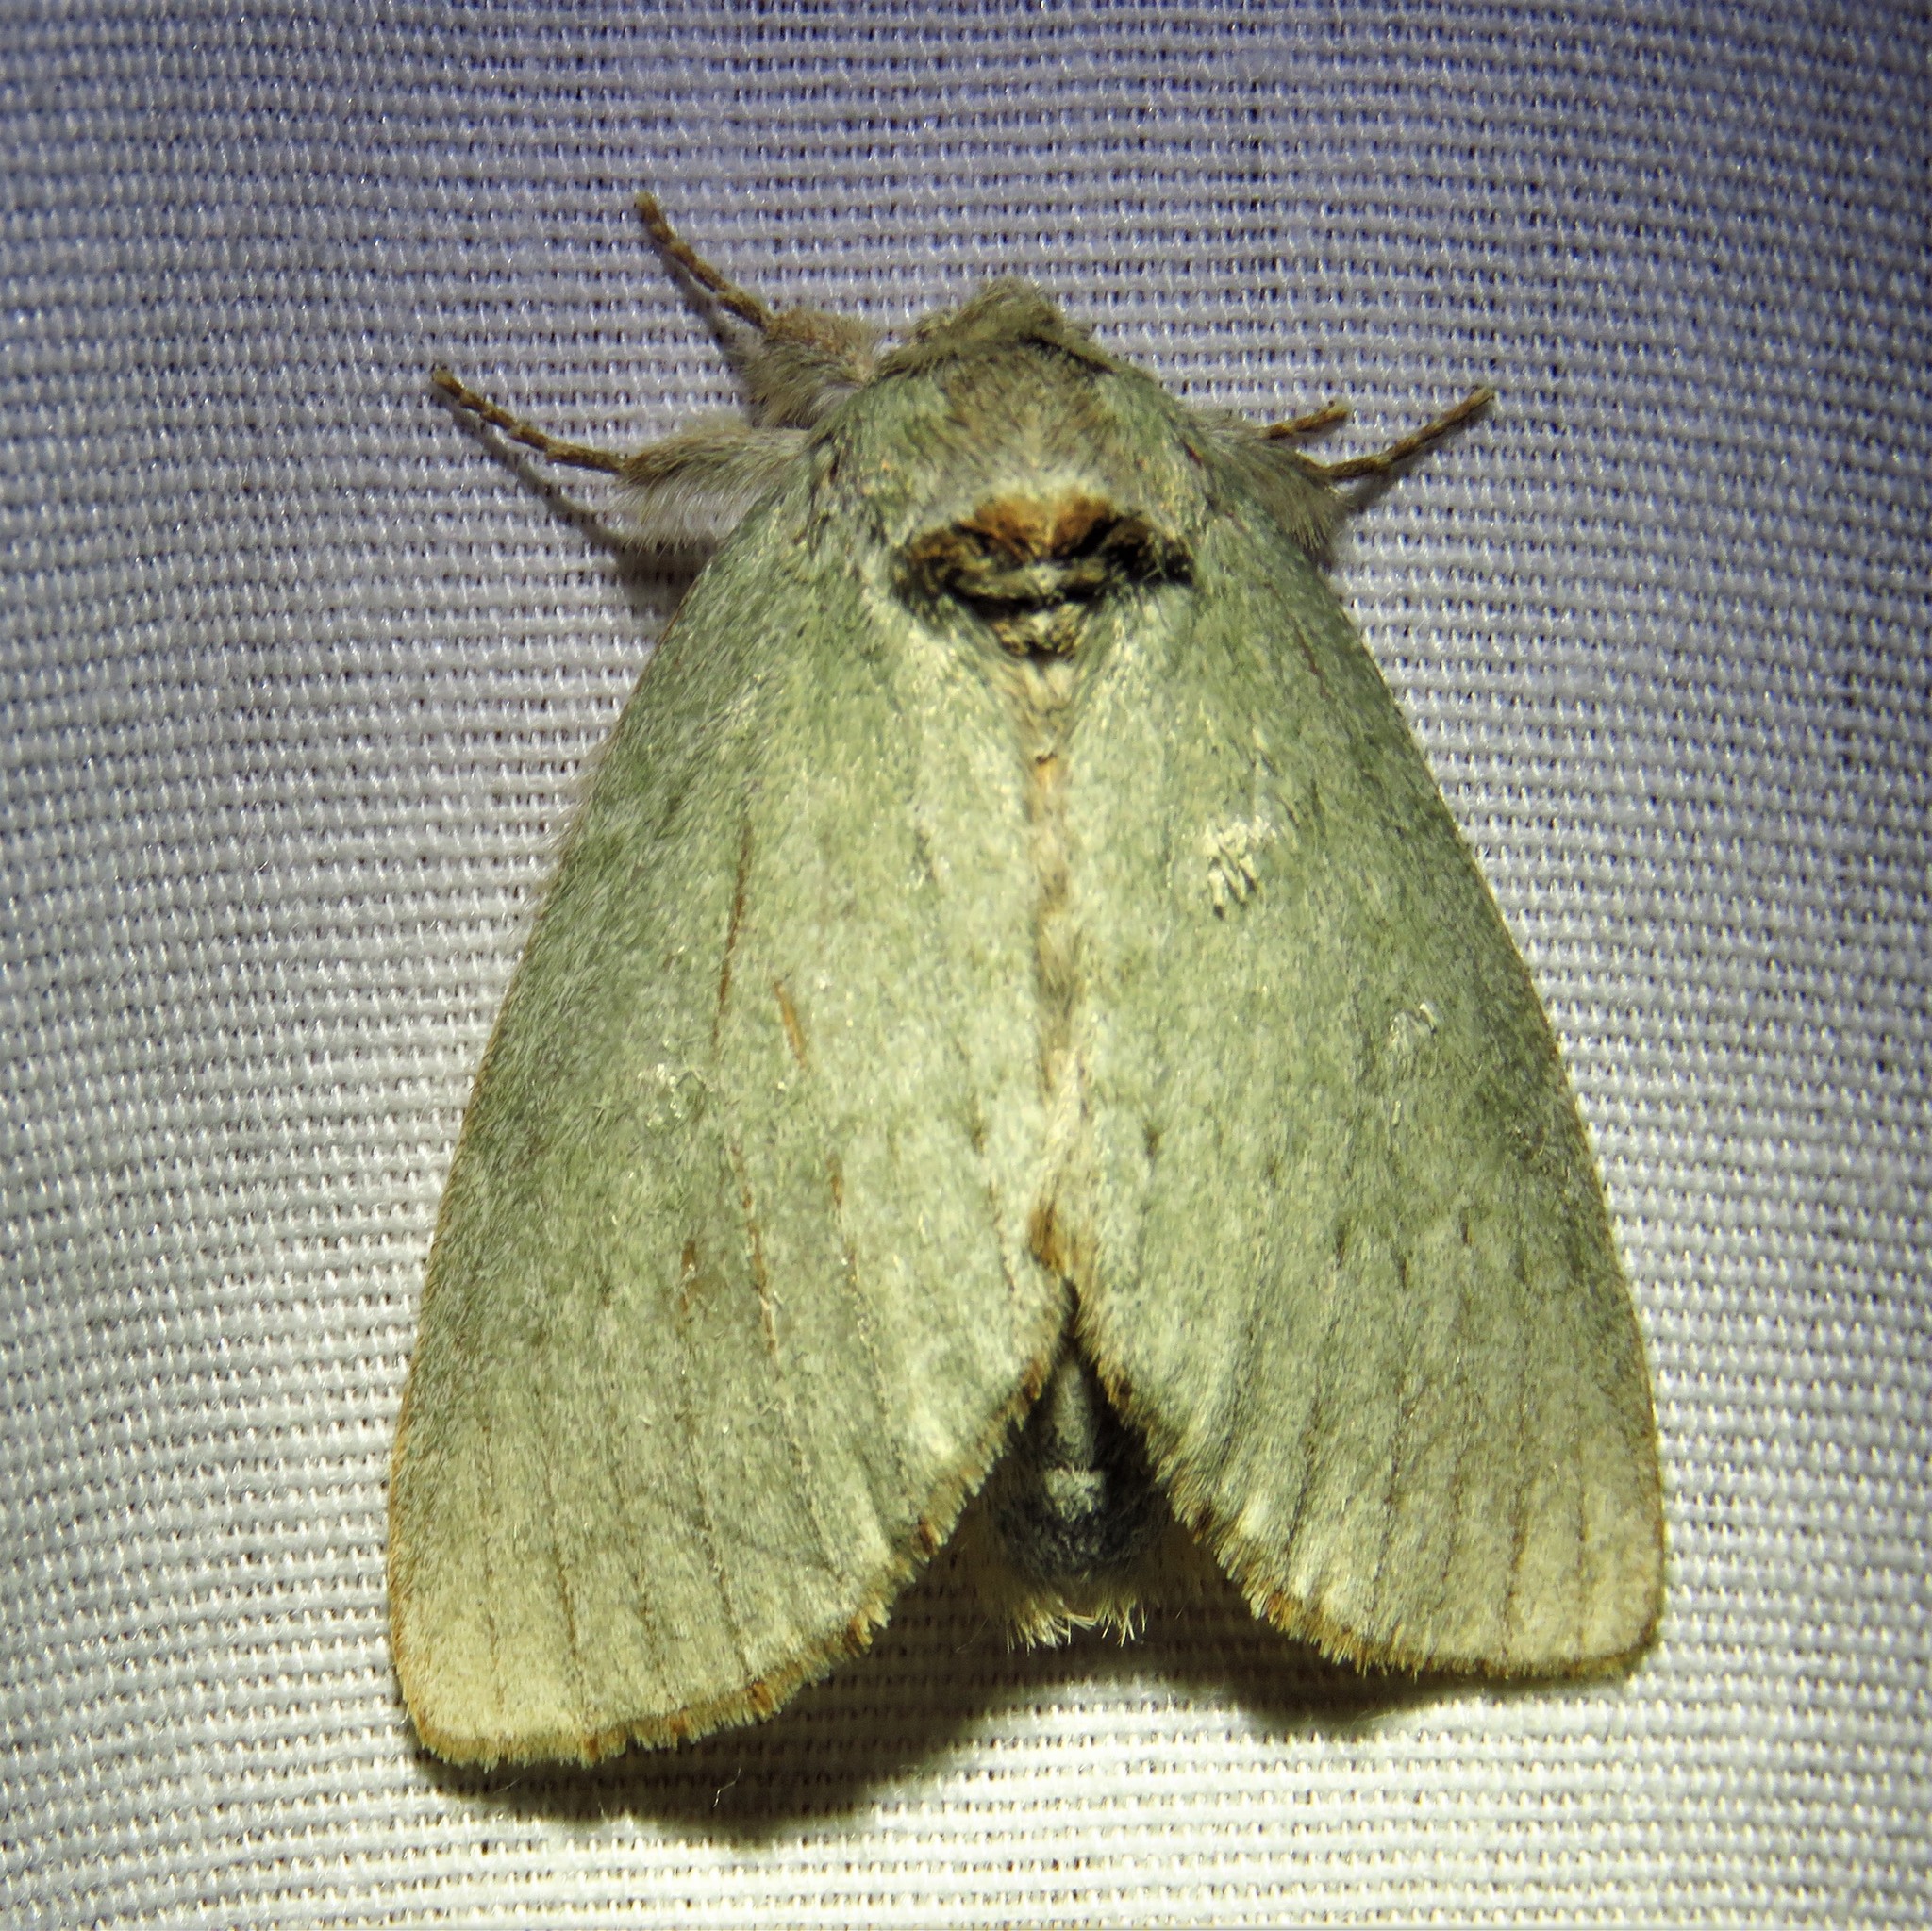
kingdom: Animalia
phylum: Arthropoda
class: Insecta
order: Lepidoptera
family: Notodontidae
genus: Misogada
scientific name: Misogada unicolor
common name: Drab prominent
